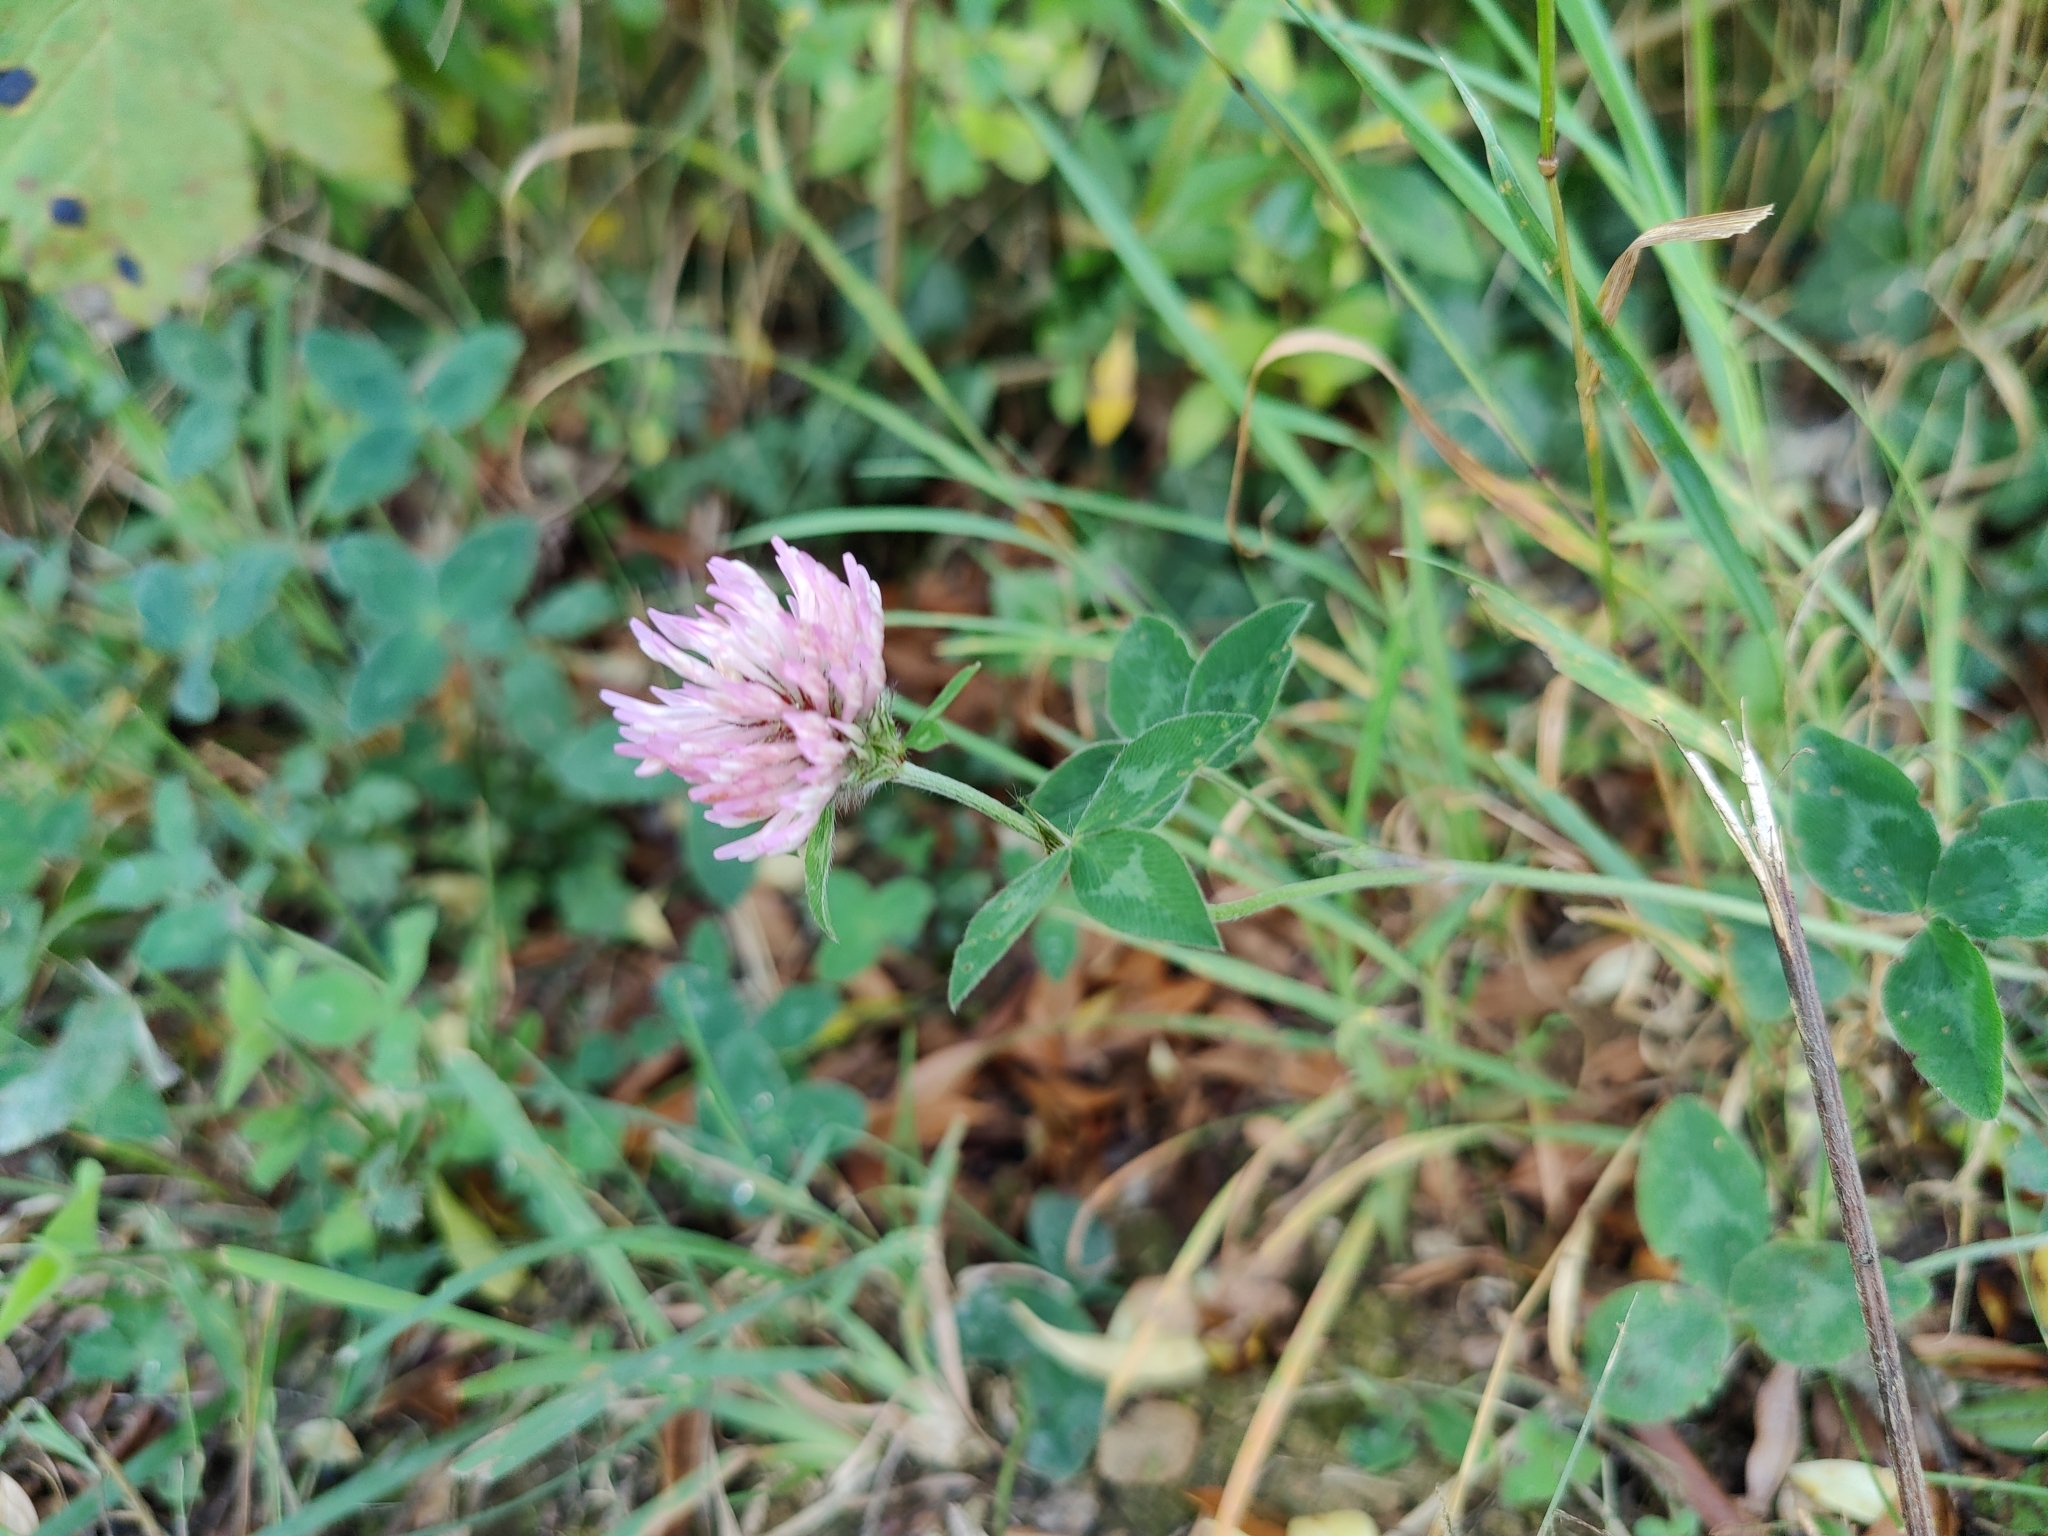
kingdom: Plantae
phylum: Tracheophyta
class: Magnoliopsida
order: Fabales
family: Fabaceae
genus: Trifolium
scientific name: Trifolium pratense
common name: Red clover
